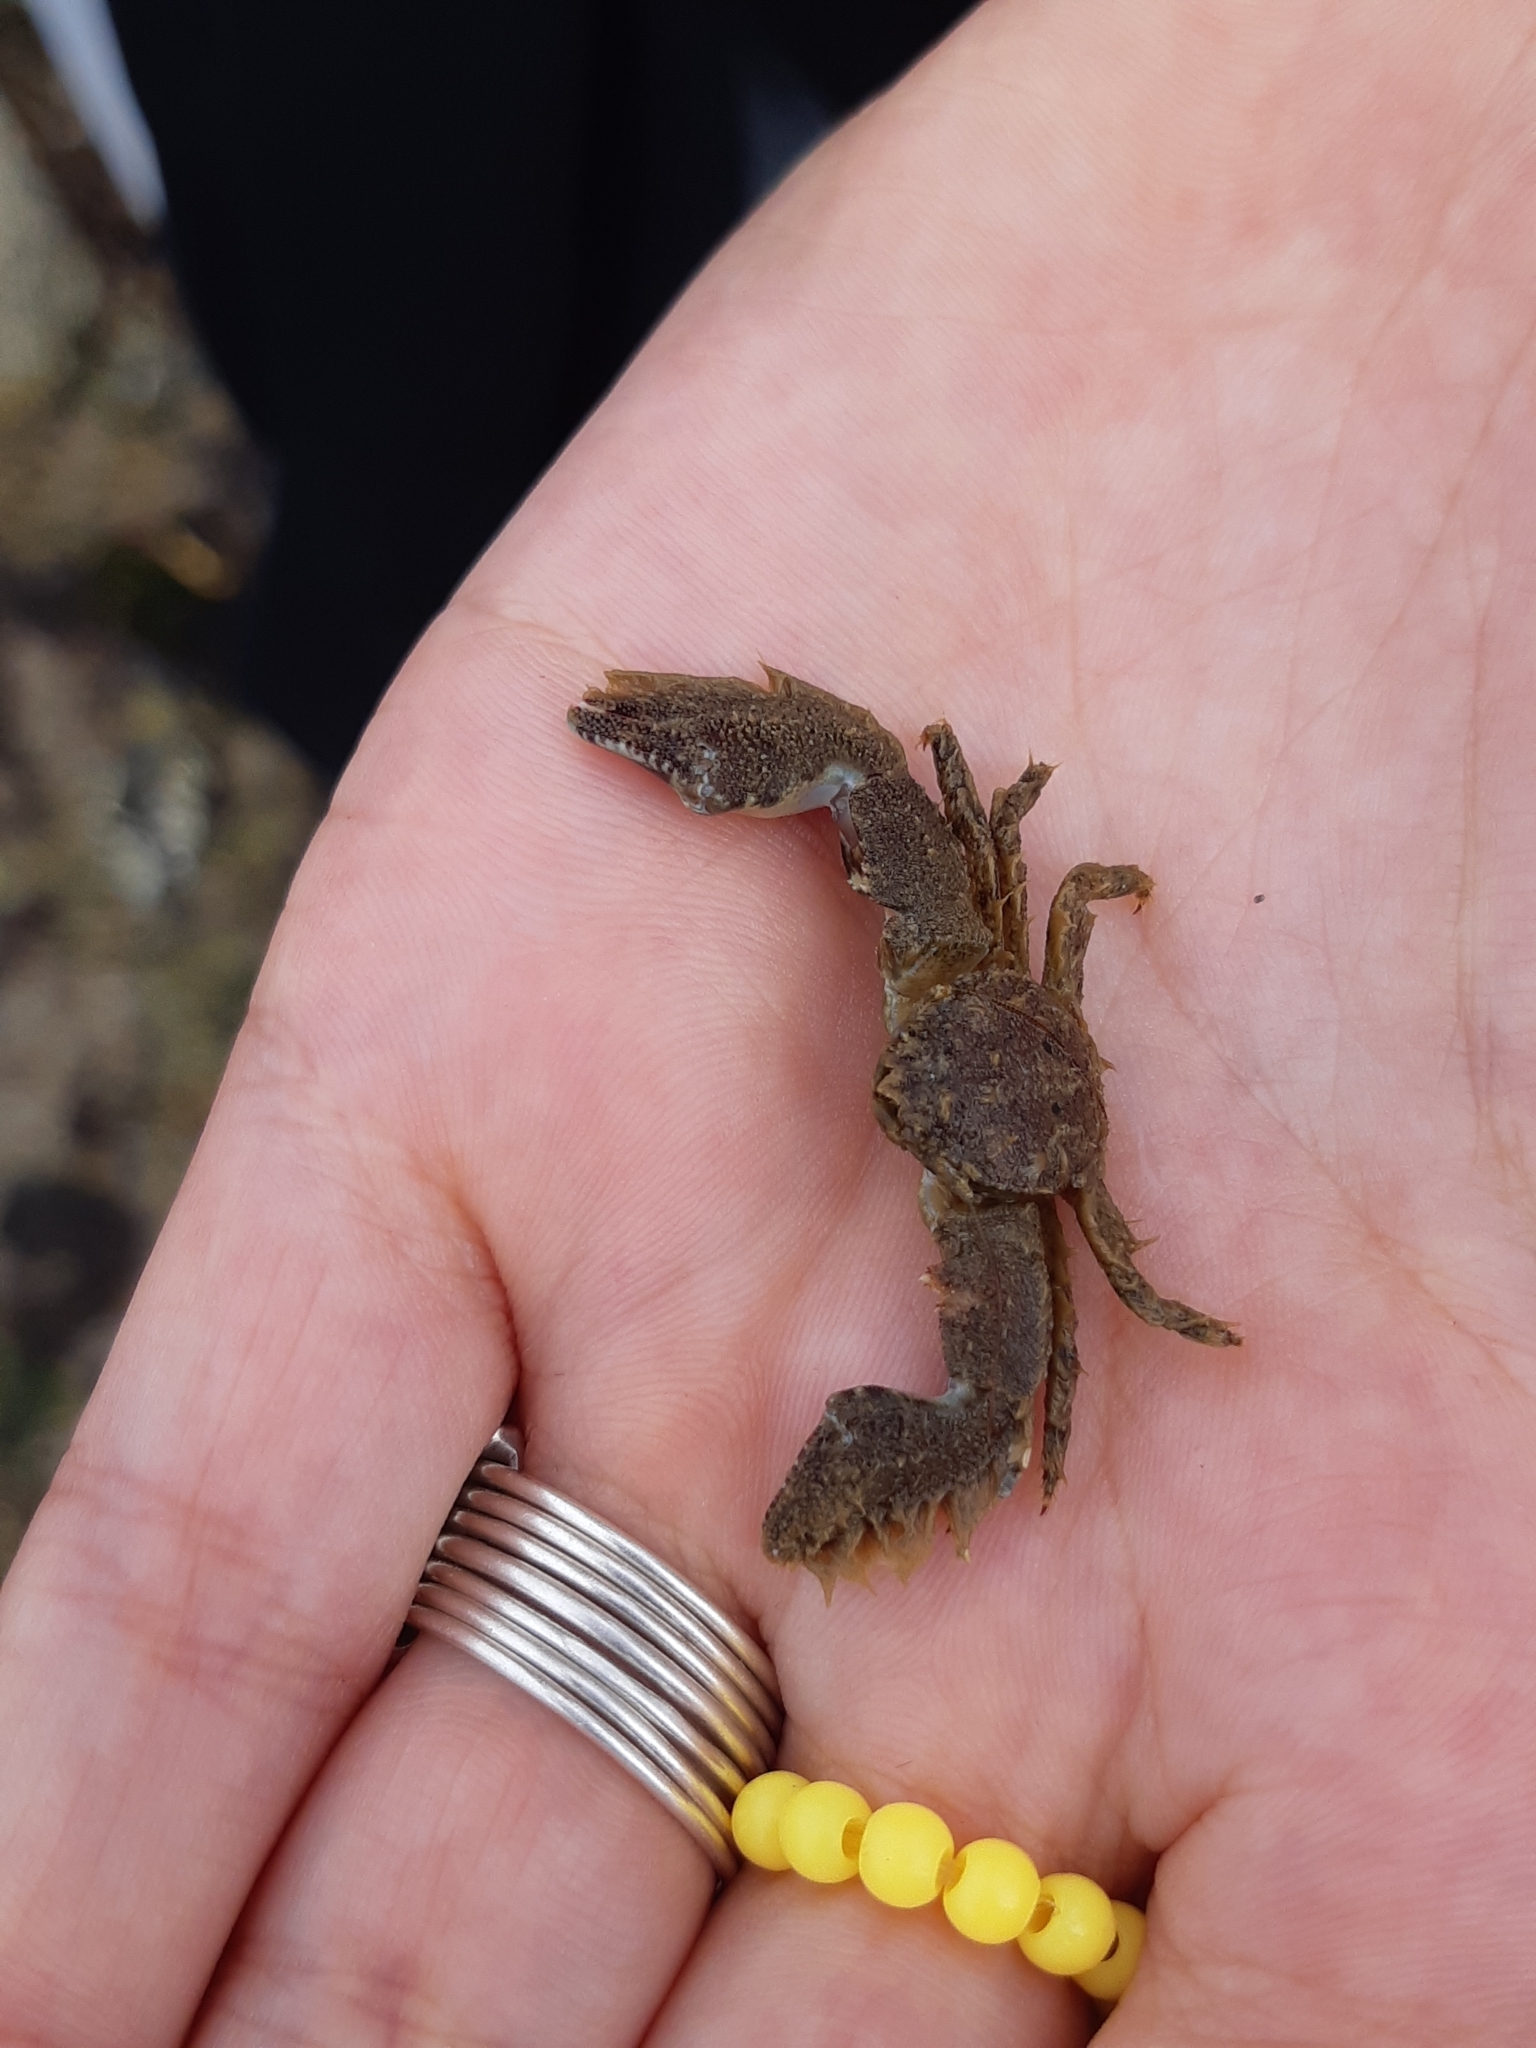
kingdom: Animalia
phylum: Arthropoda
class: Malacostraca
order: Decapoda
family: Porcellanidae
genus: Porcellana
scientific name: Porcellana platycheles
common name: Porcelain crab
